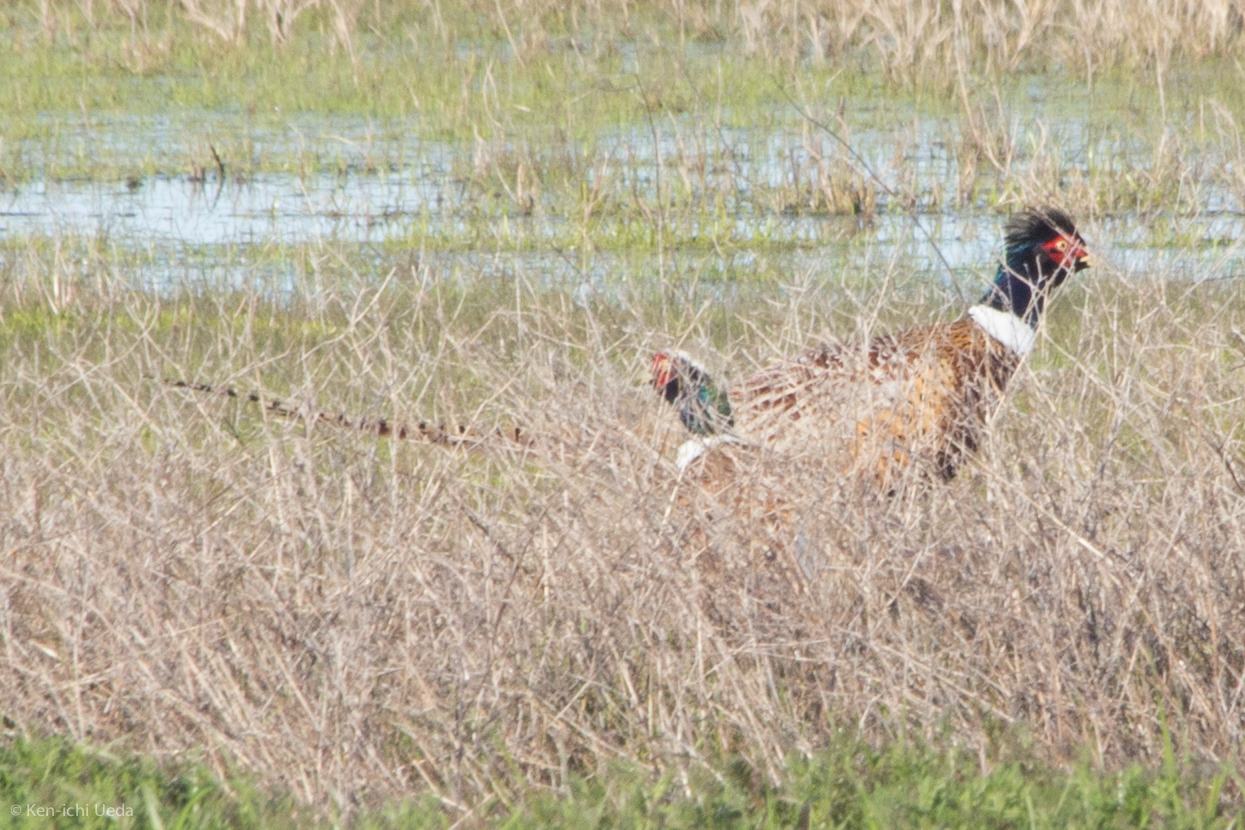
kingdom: Animalia
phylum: Chordata
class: Aves
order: Galliformes
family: Phasianidae
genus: Phasianus
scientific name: Phasianus colchicus
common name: Common pheasant
